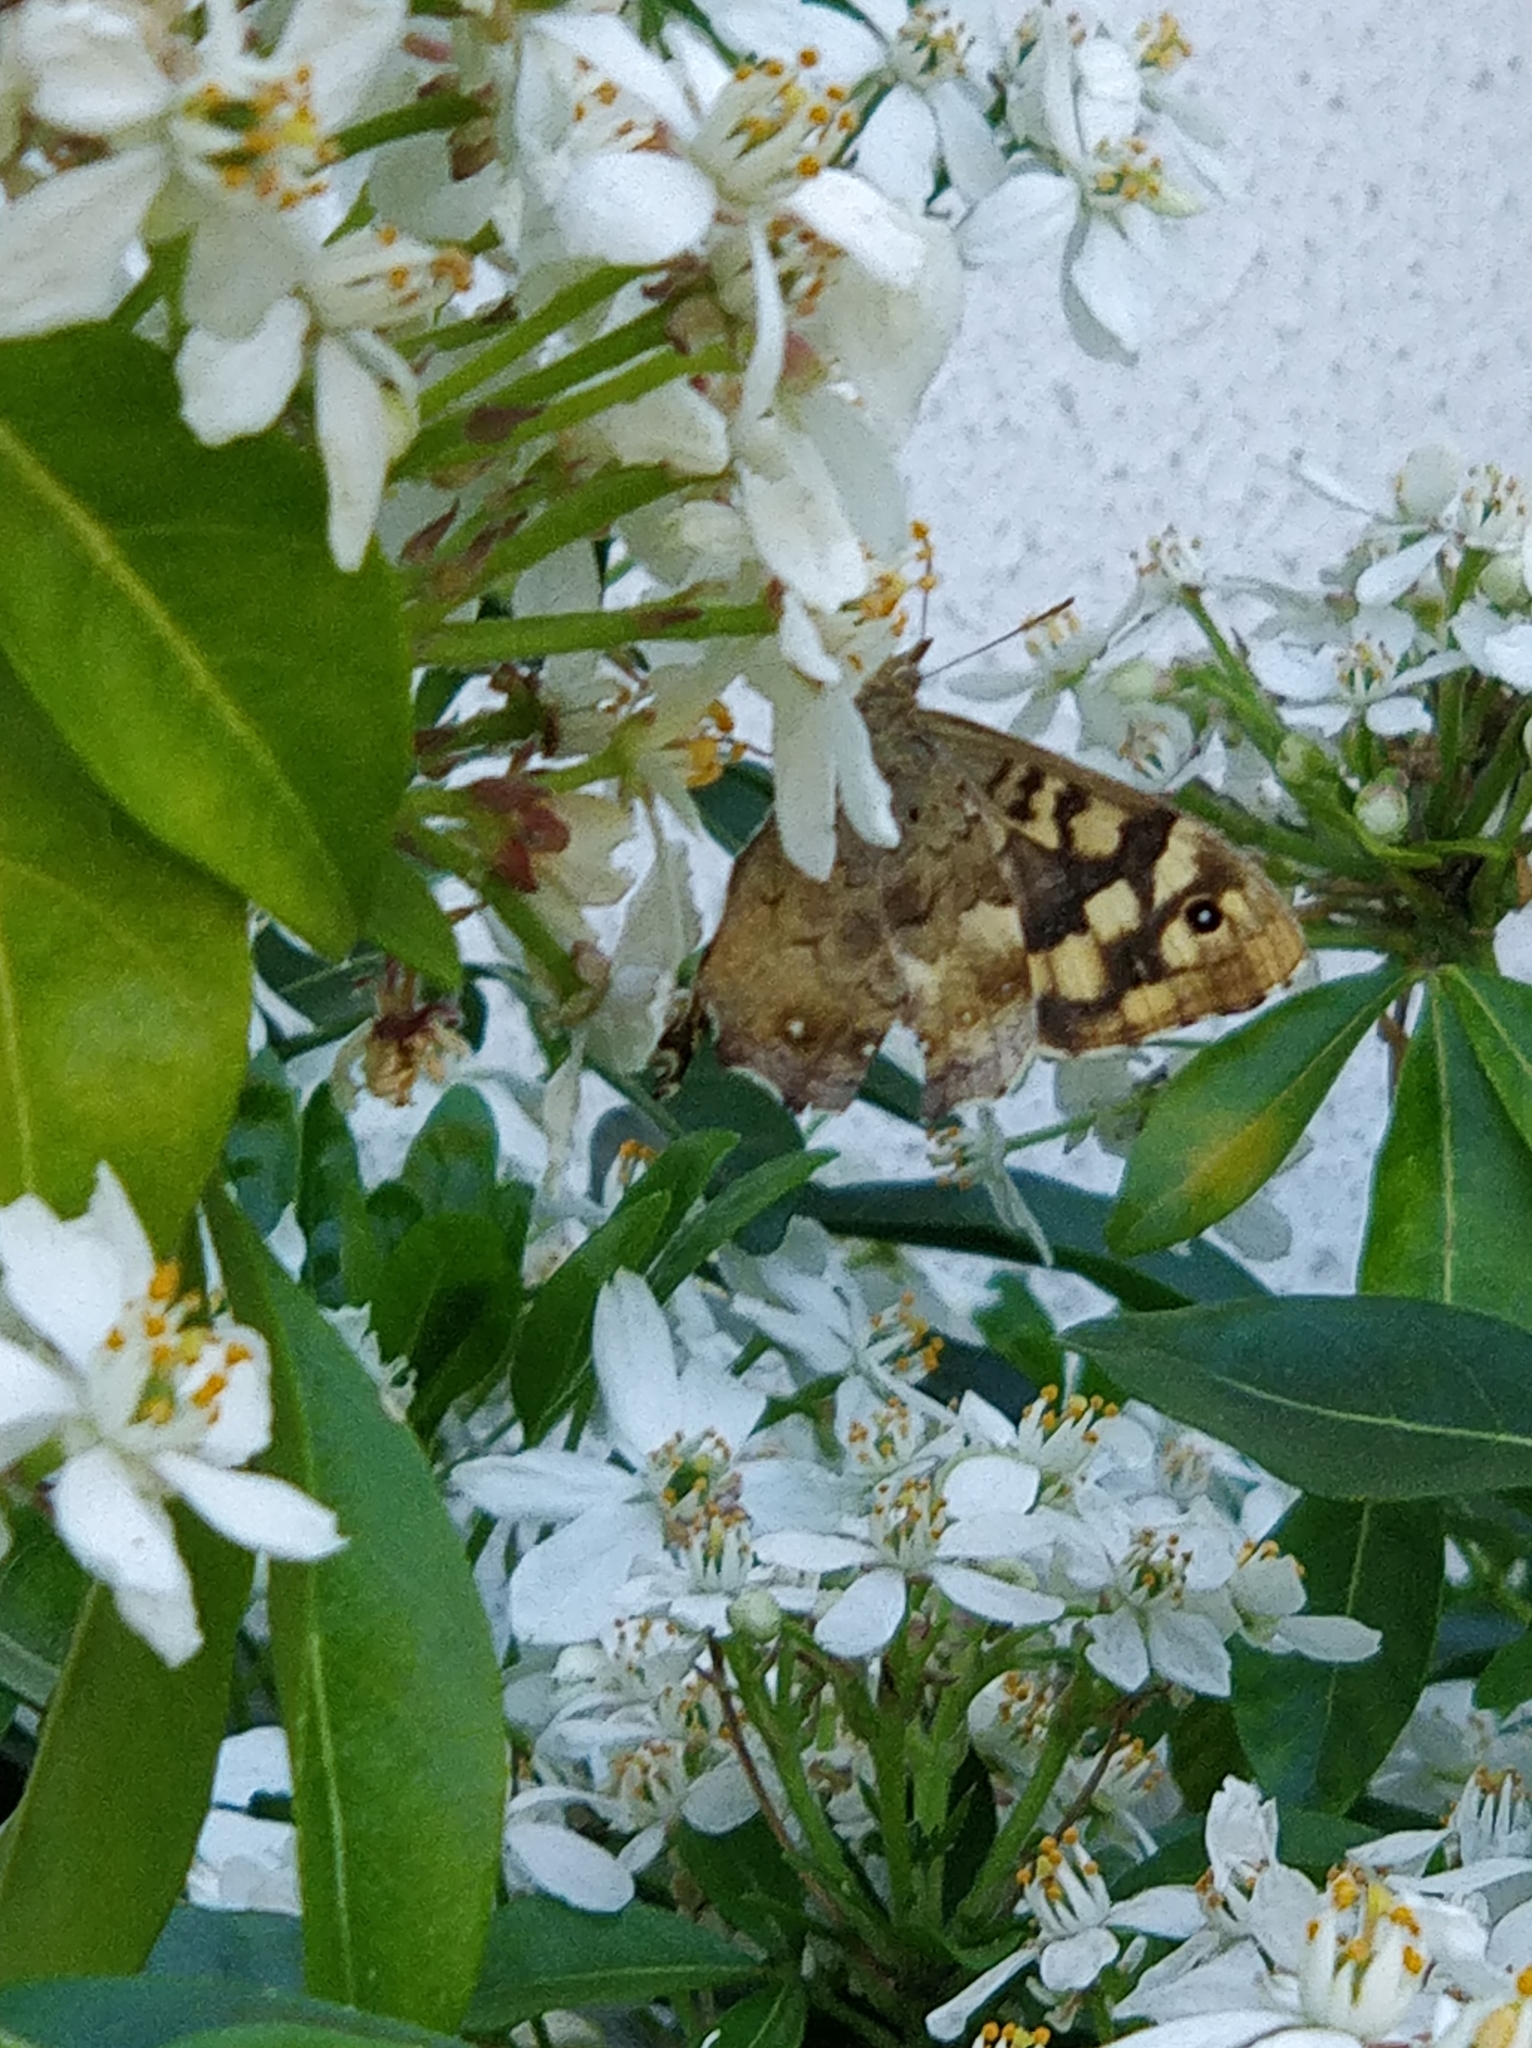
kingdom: Animalia
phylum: Arthropoda
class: Insecta
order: Lepidoptera
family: Nymphalidae
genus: Pararge
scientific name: Pararge aegeria
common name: Speckled wood
